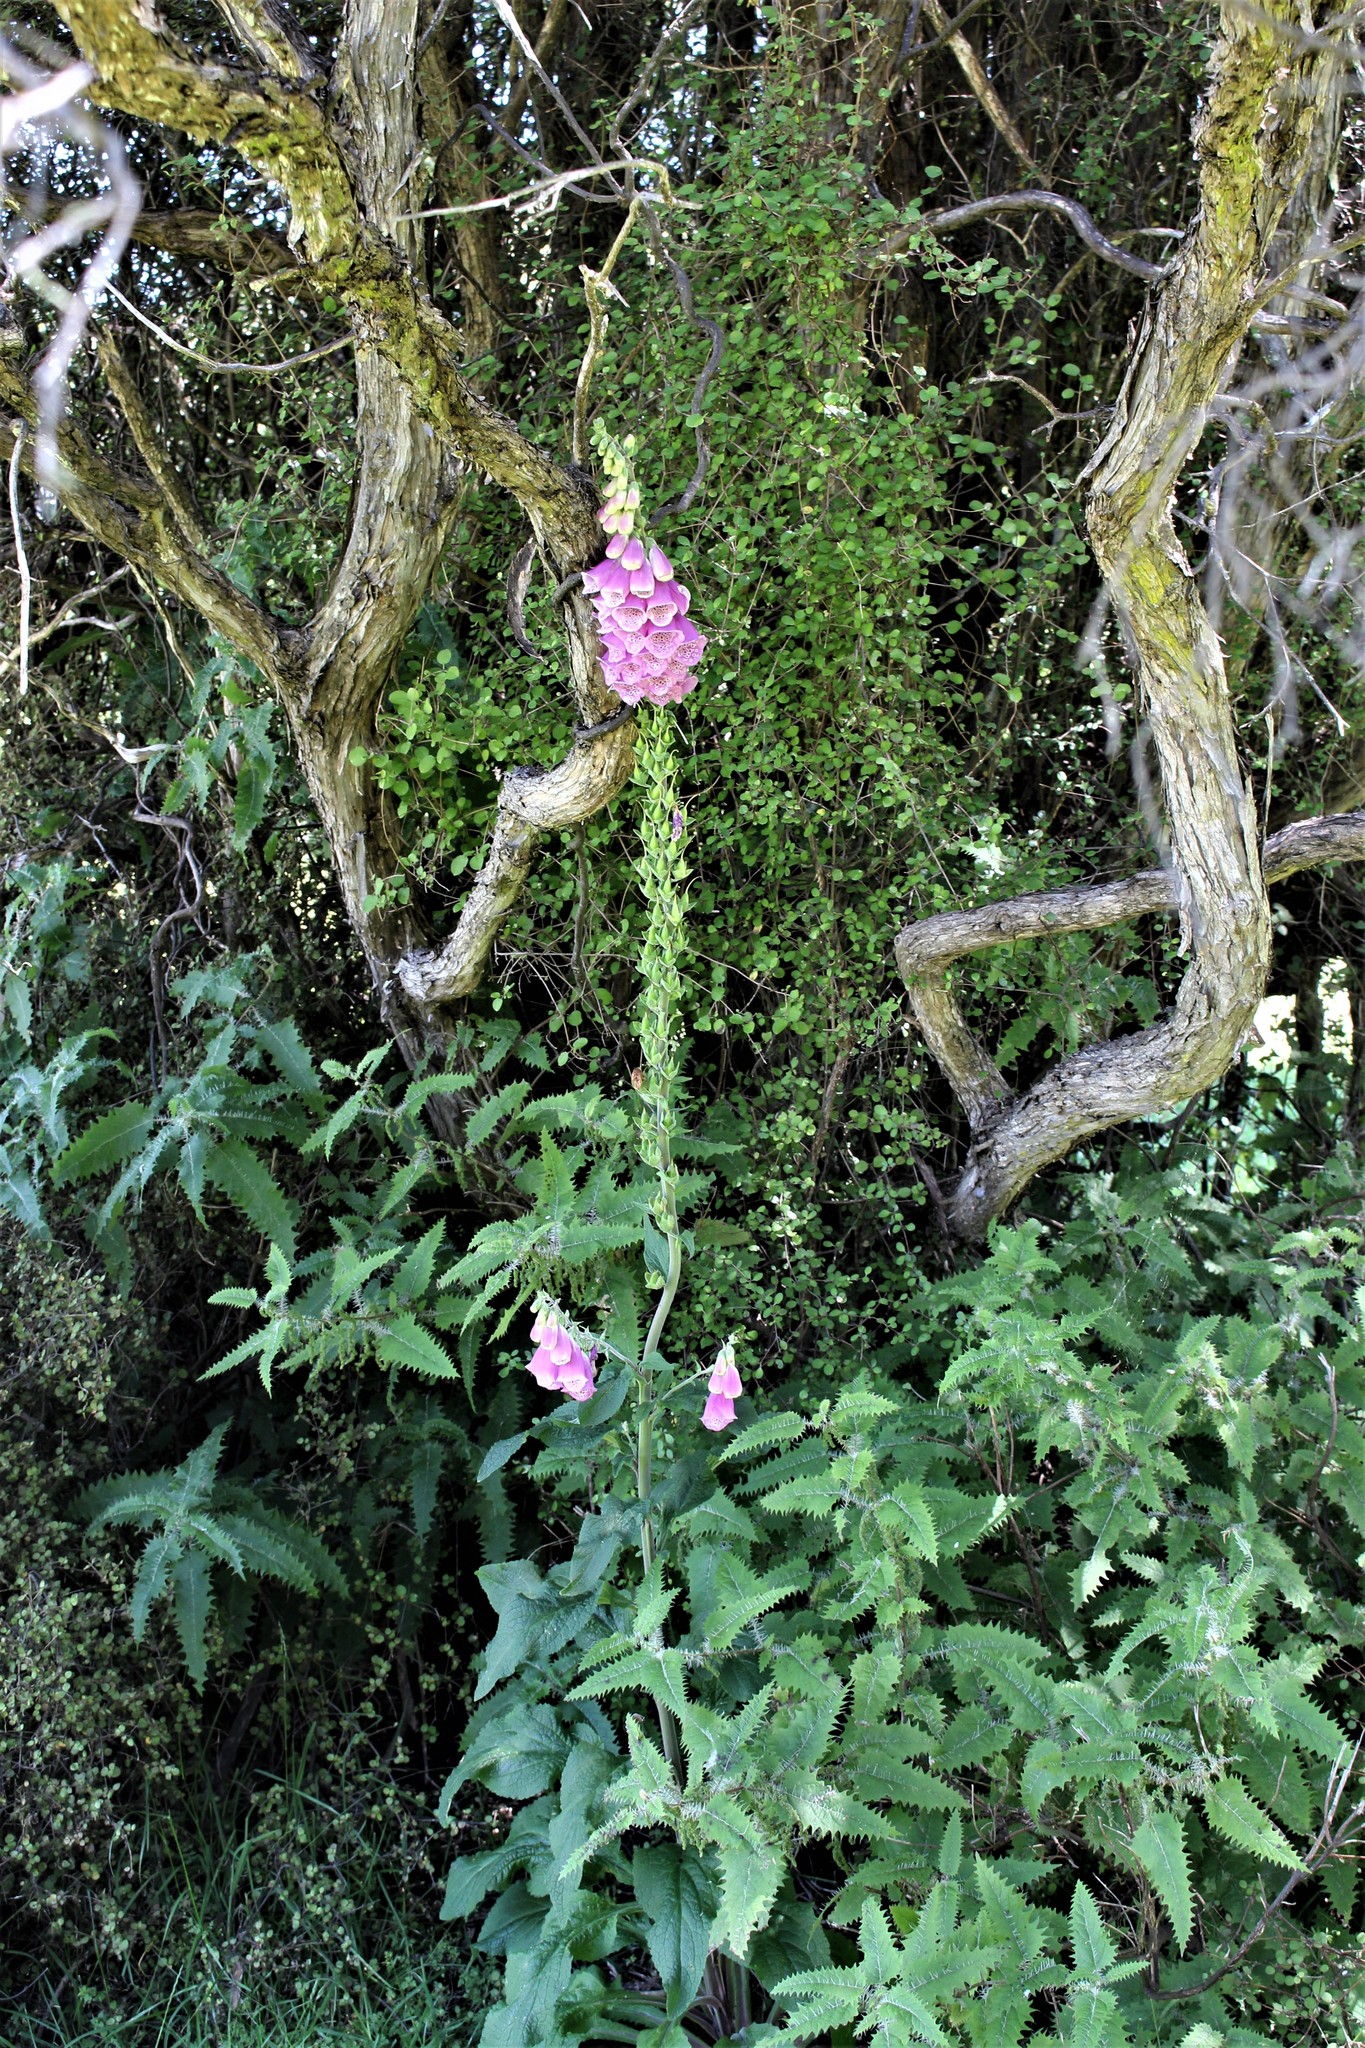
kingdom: Plantae
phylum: Tracheophyta
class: Magnoliopsida
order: Lamiales
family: Plantaginaceae
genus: Digitalis
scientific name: Digitalis purpurea
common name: Foxglove
